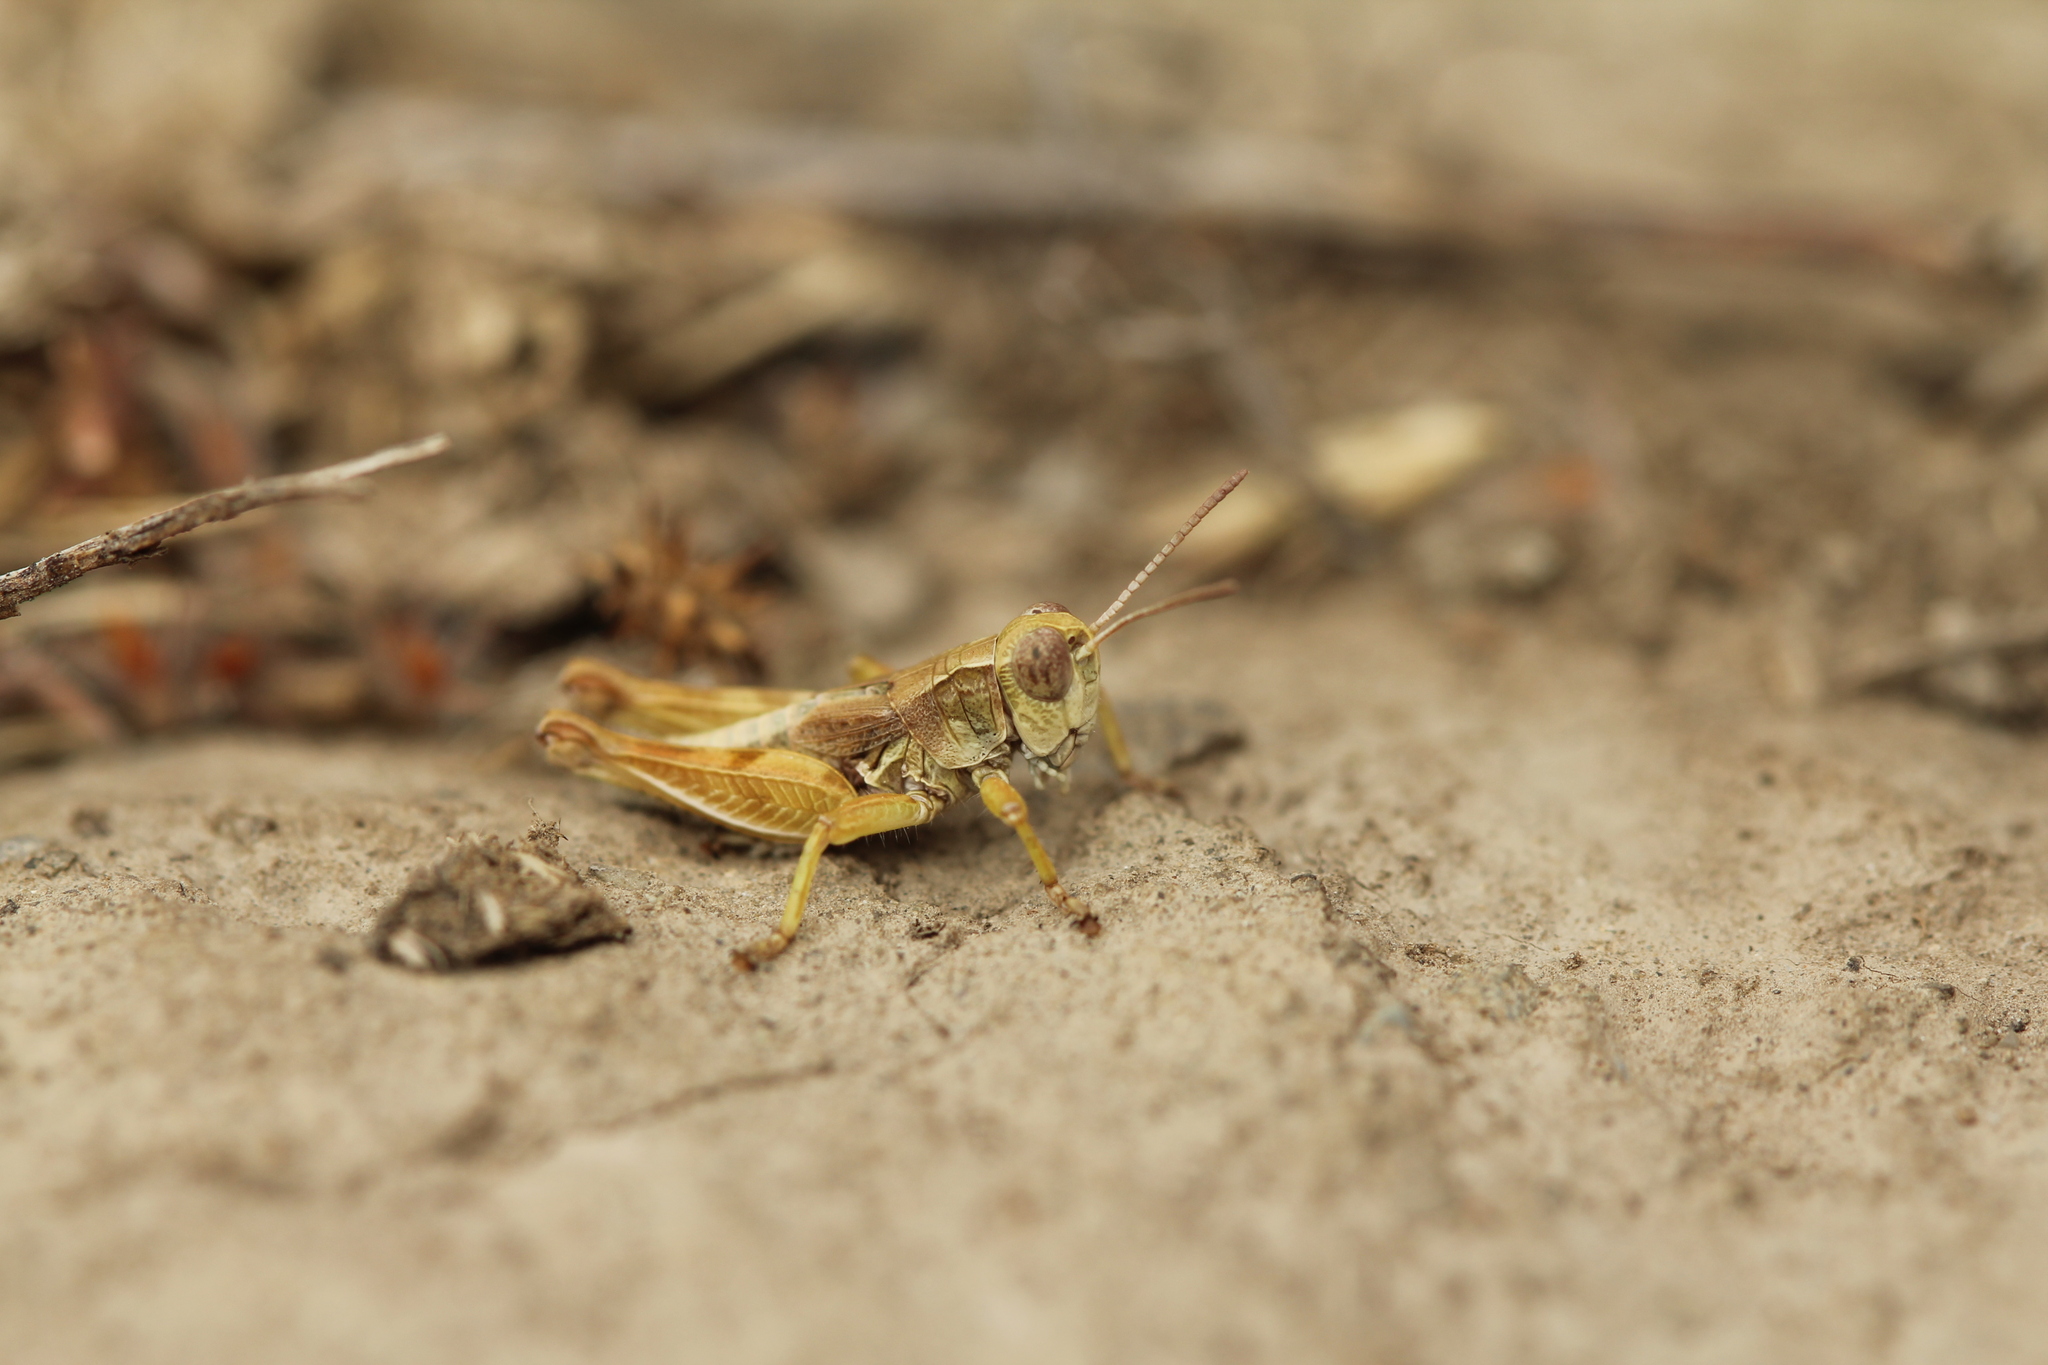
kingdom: Animalia
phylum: Arthropoda
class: Insecta
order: Orthoptera
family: Acrididae
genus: Phaulacridium
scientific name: Phaulacridium marginale
